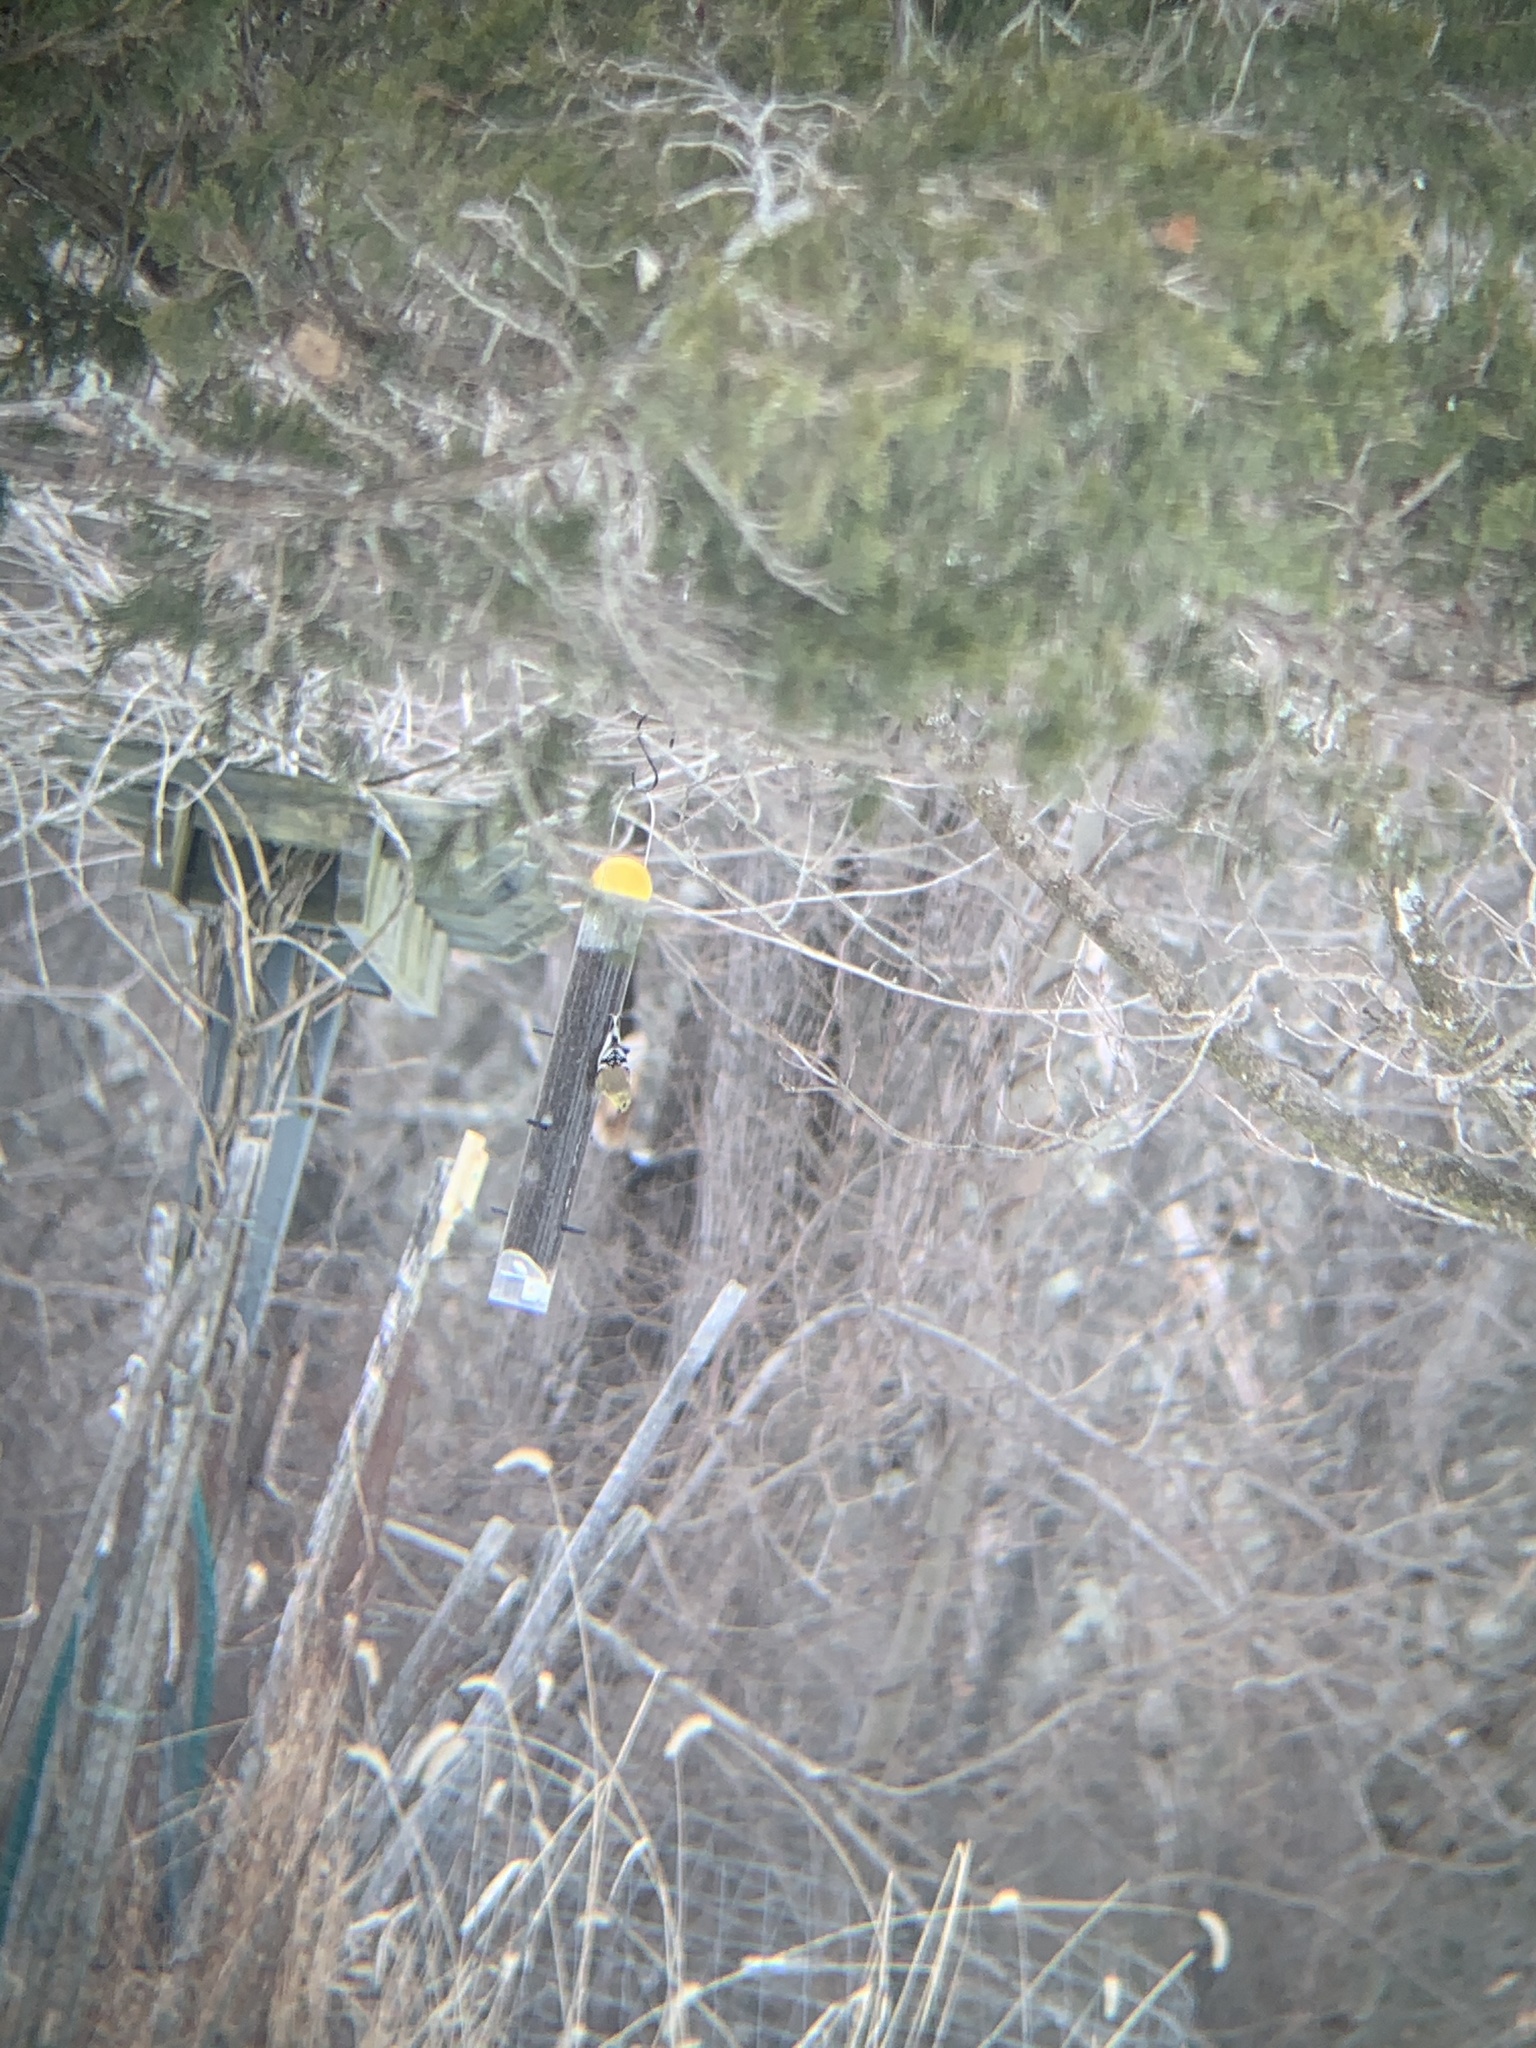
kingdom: Animalia
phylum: Chordata
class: Aves
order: Passeriformes
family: Fringillidae
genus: Spinus
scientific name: Spinus tristis
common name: American goldfinch
